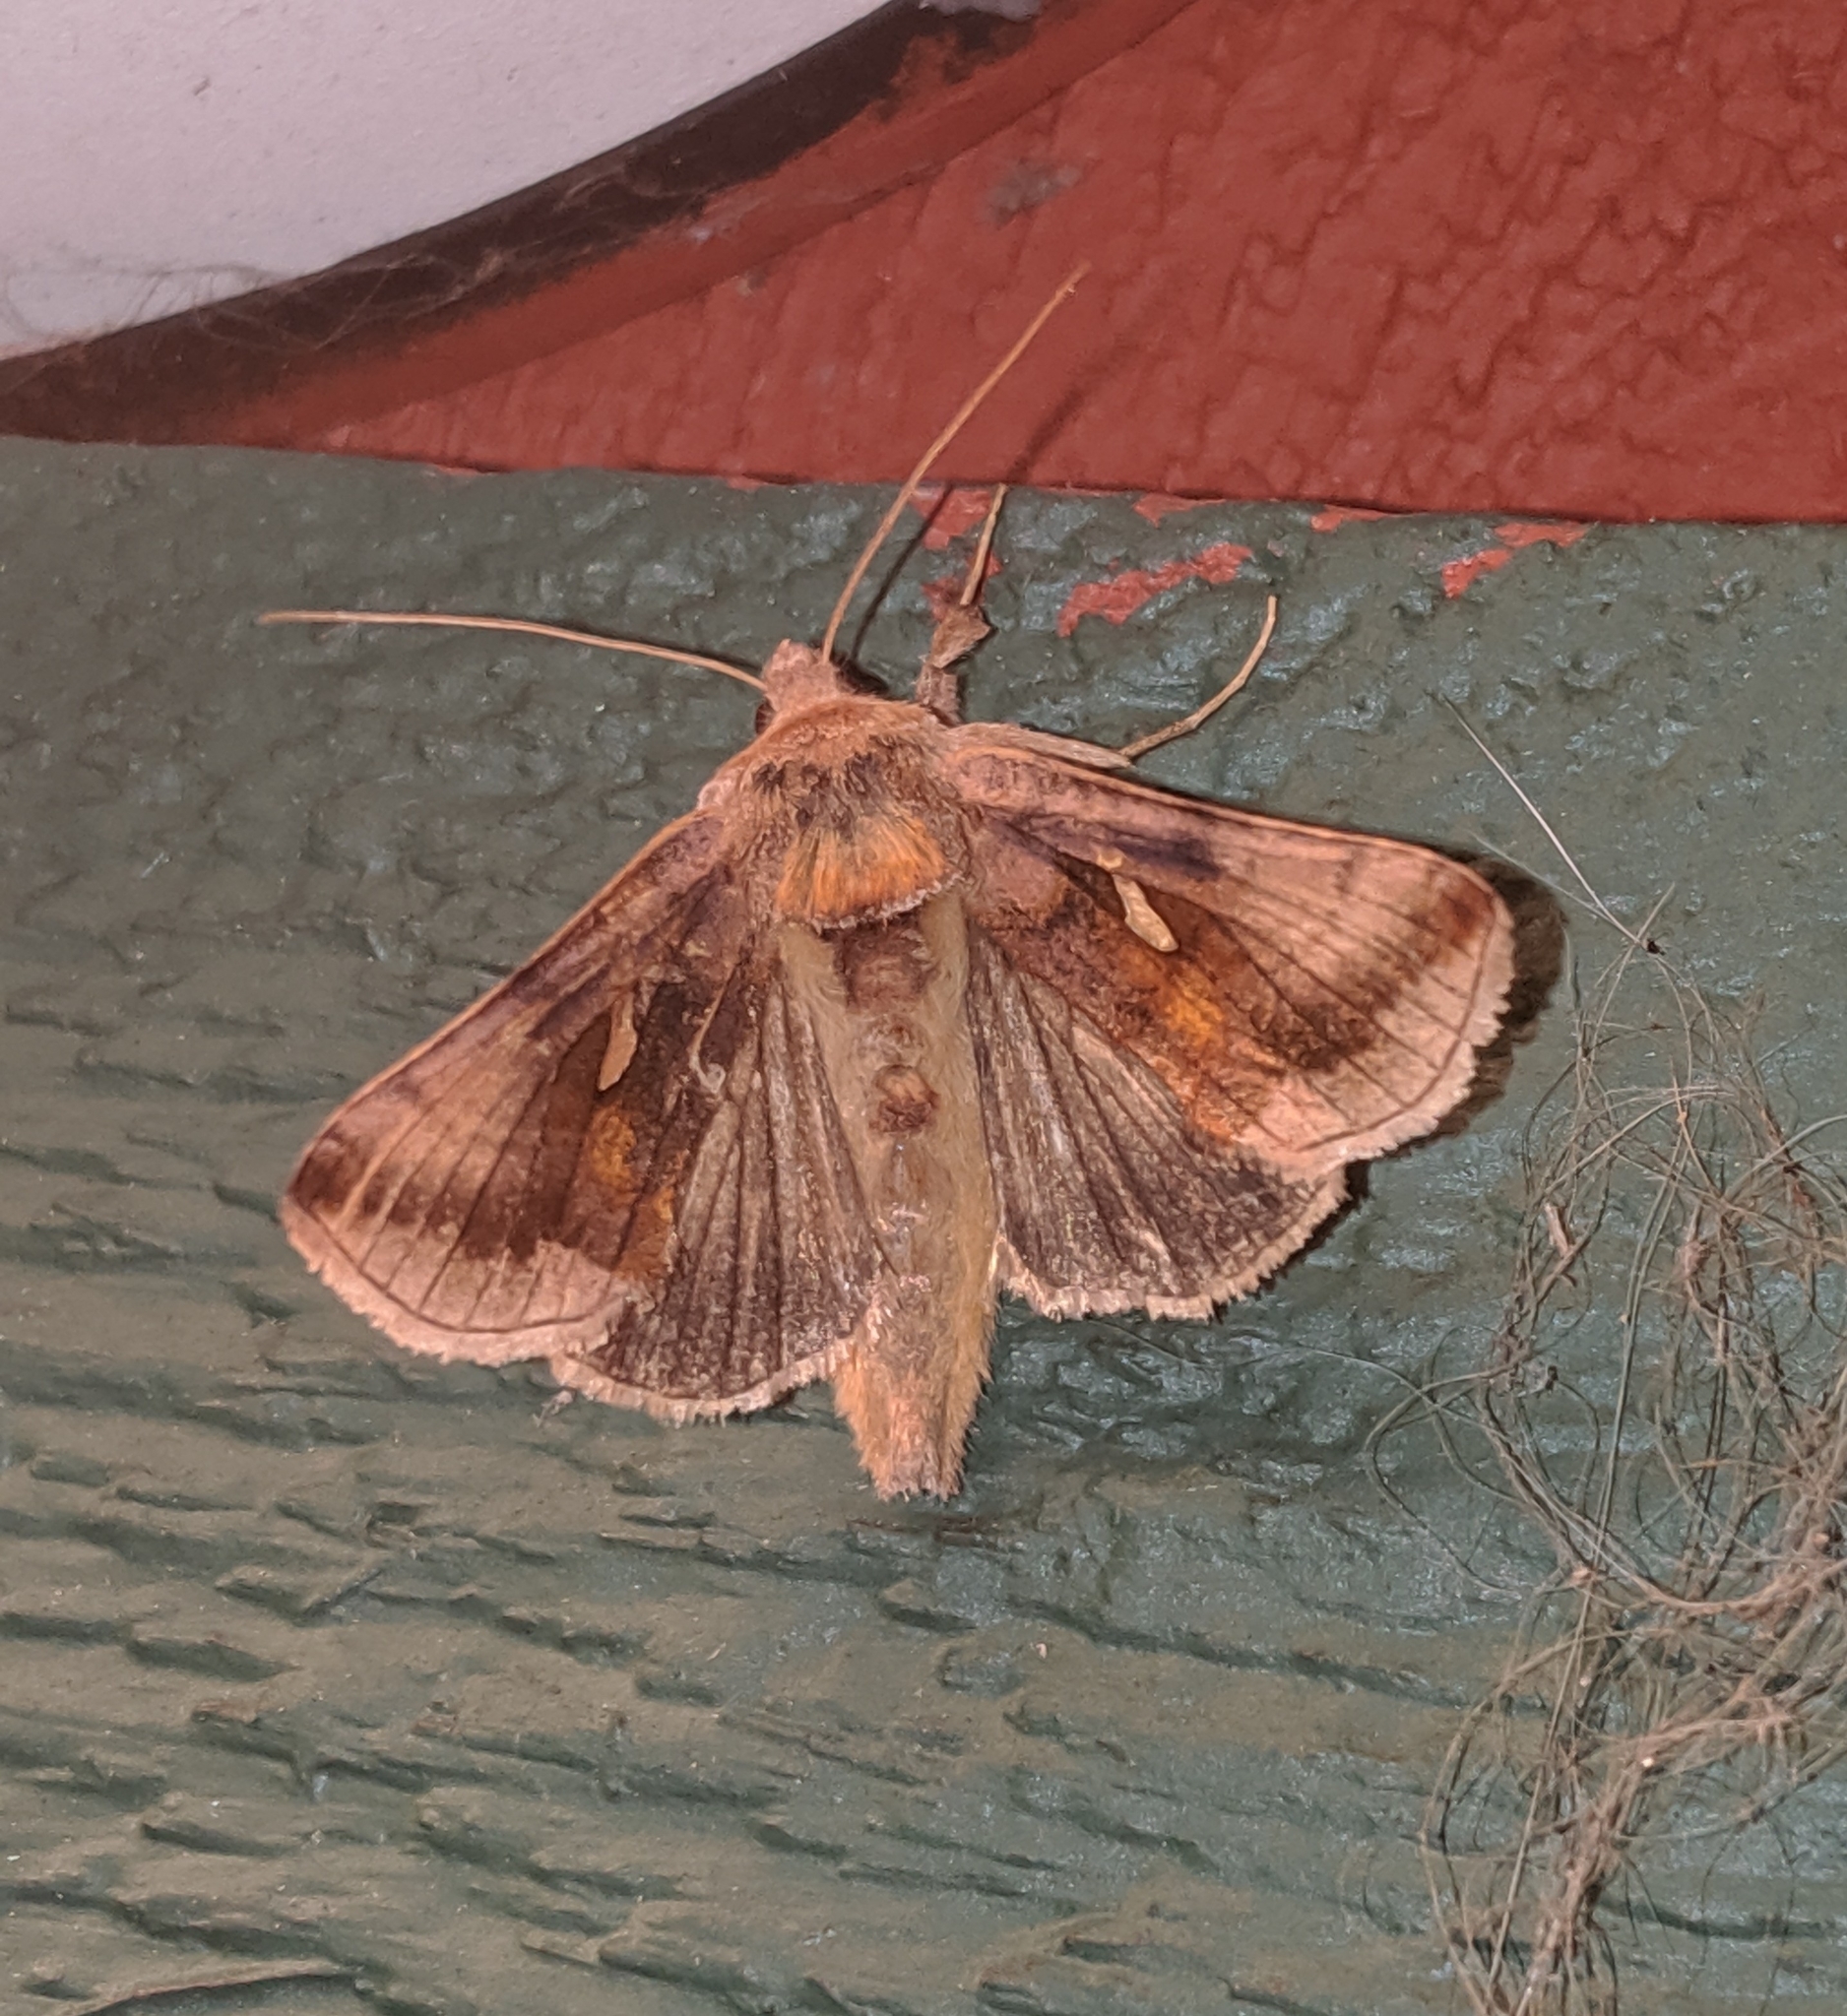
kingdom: Animalia
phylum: Arthropoda
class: Insecta
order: Lepidoptera
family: Noctuidae
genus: Autographa
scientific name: Autographa metallica
